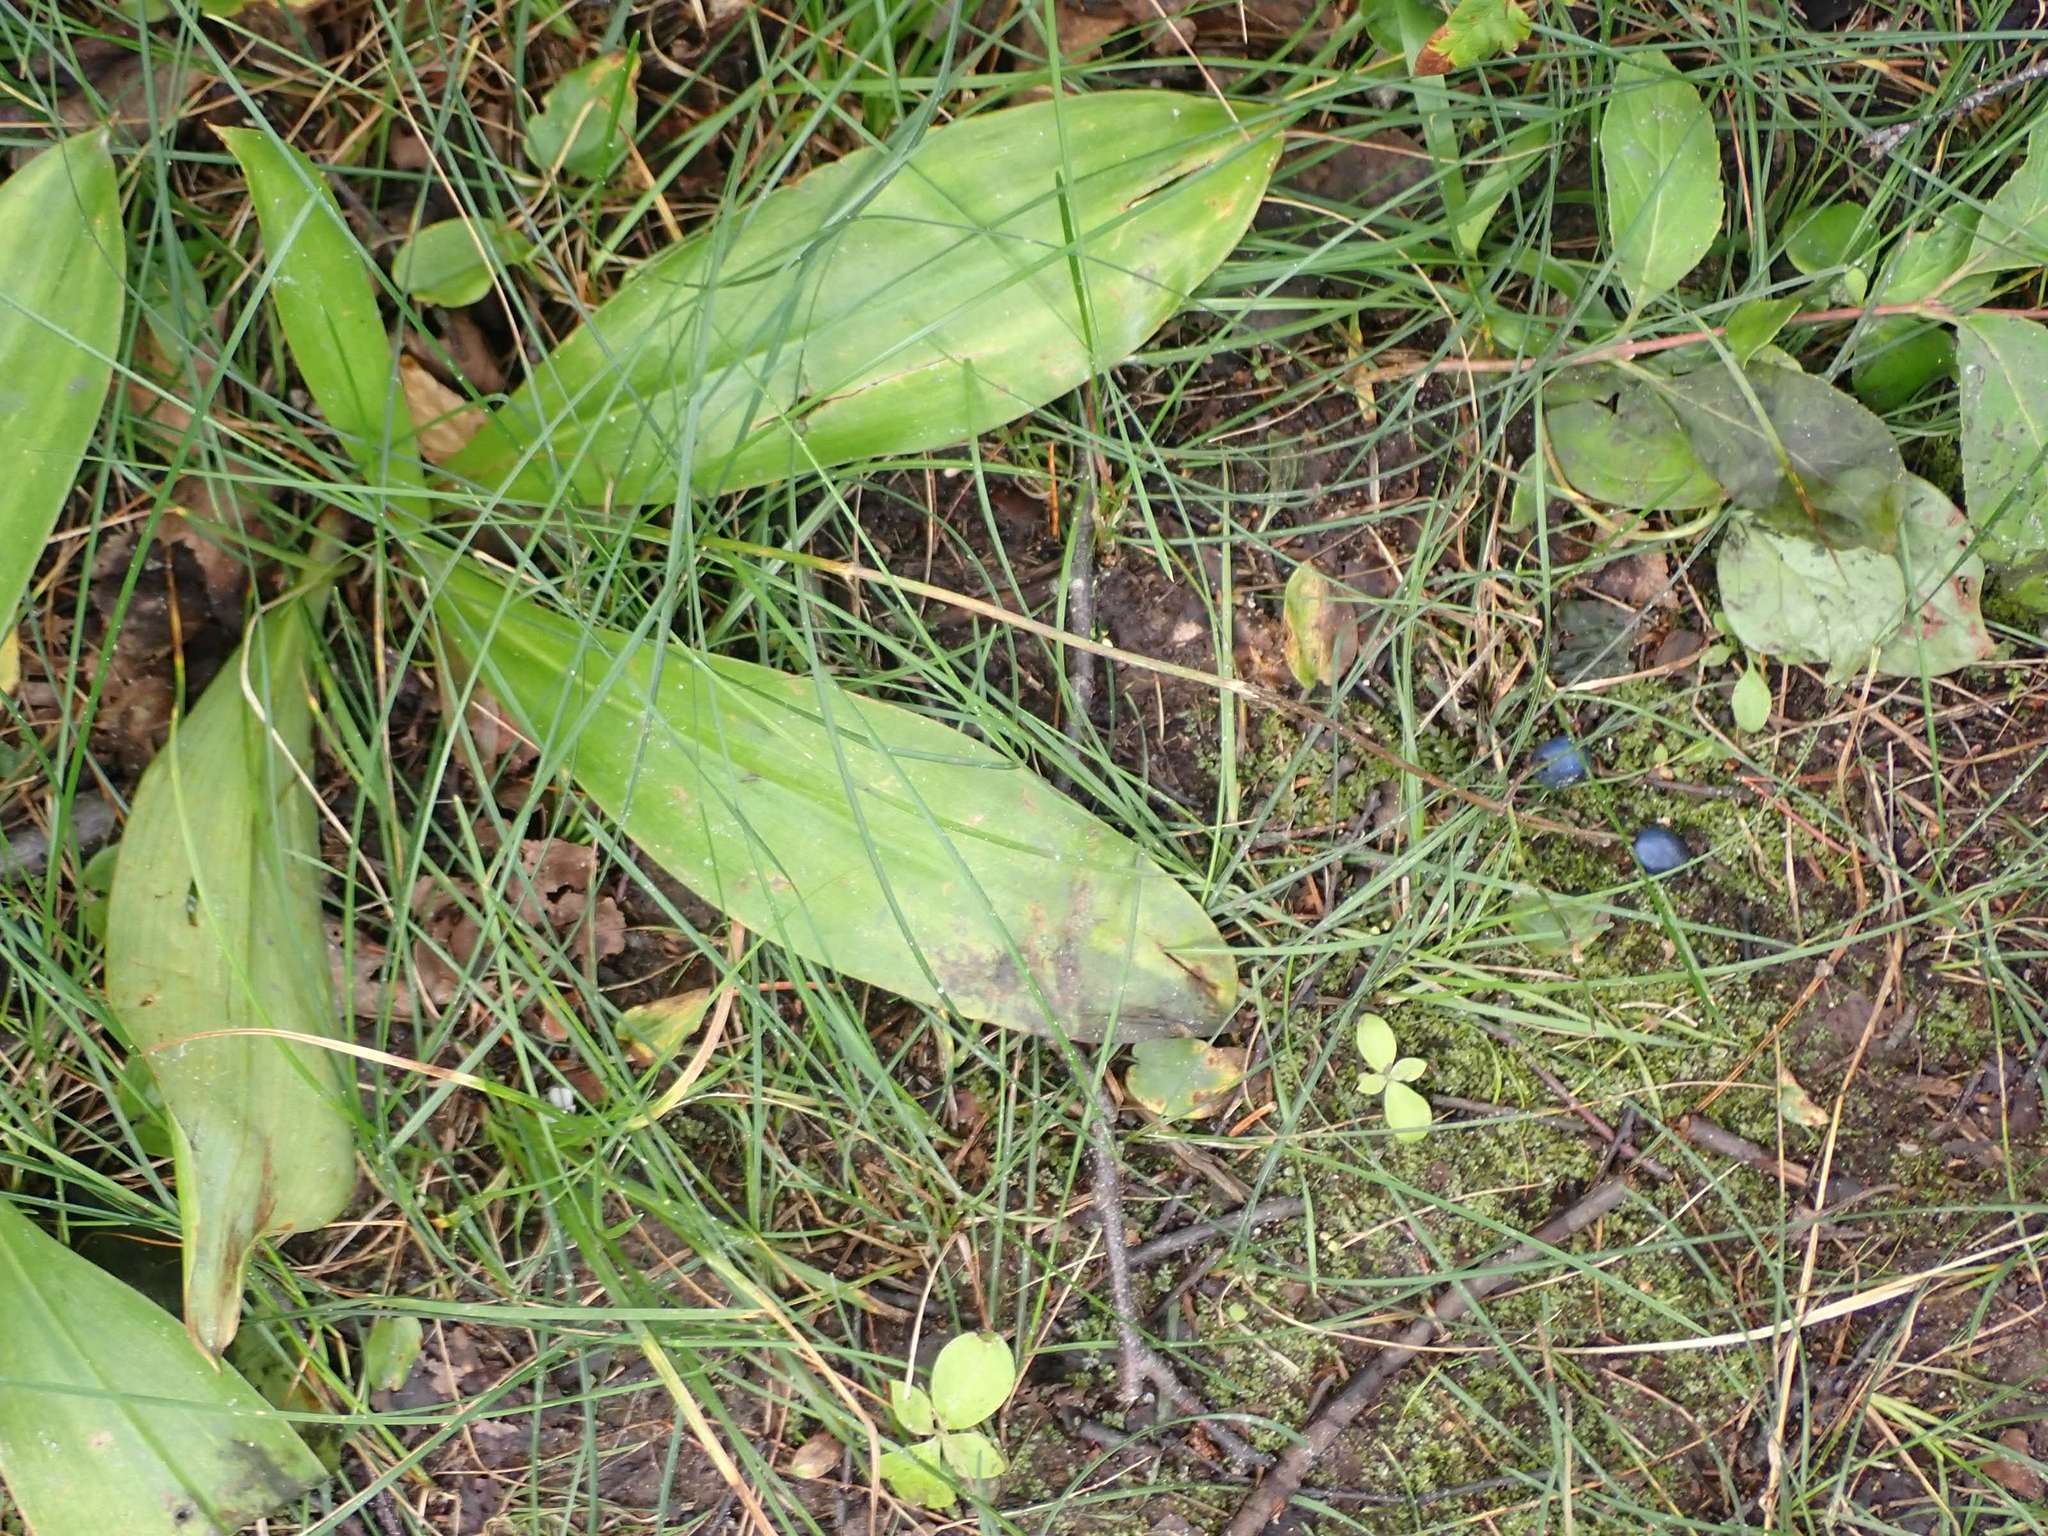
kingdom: Plantae
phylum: Tracheophyta
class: Liliopsida
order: Liliales
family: Liliaceae
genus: Clintonia
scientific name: Clintonia borealis
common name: Yellow clintonia
